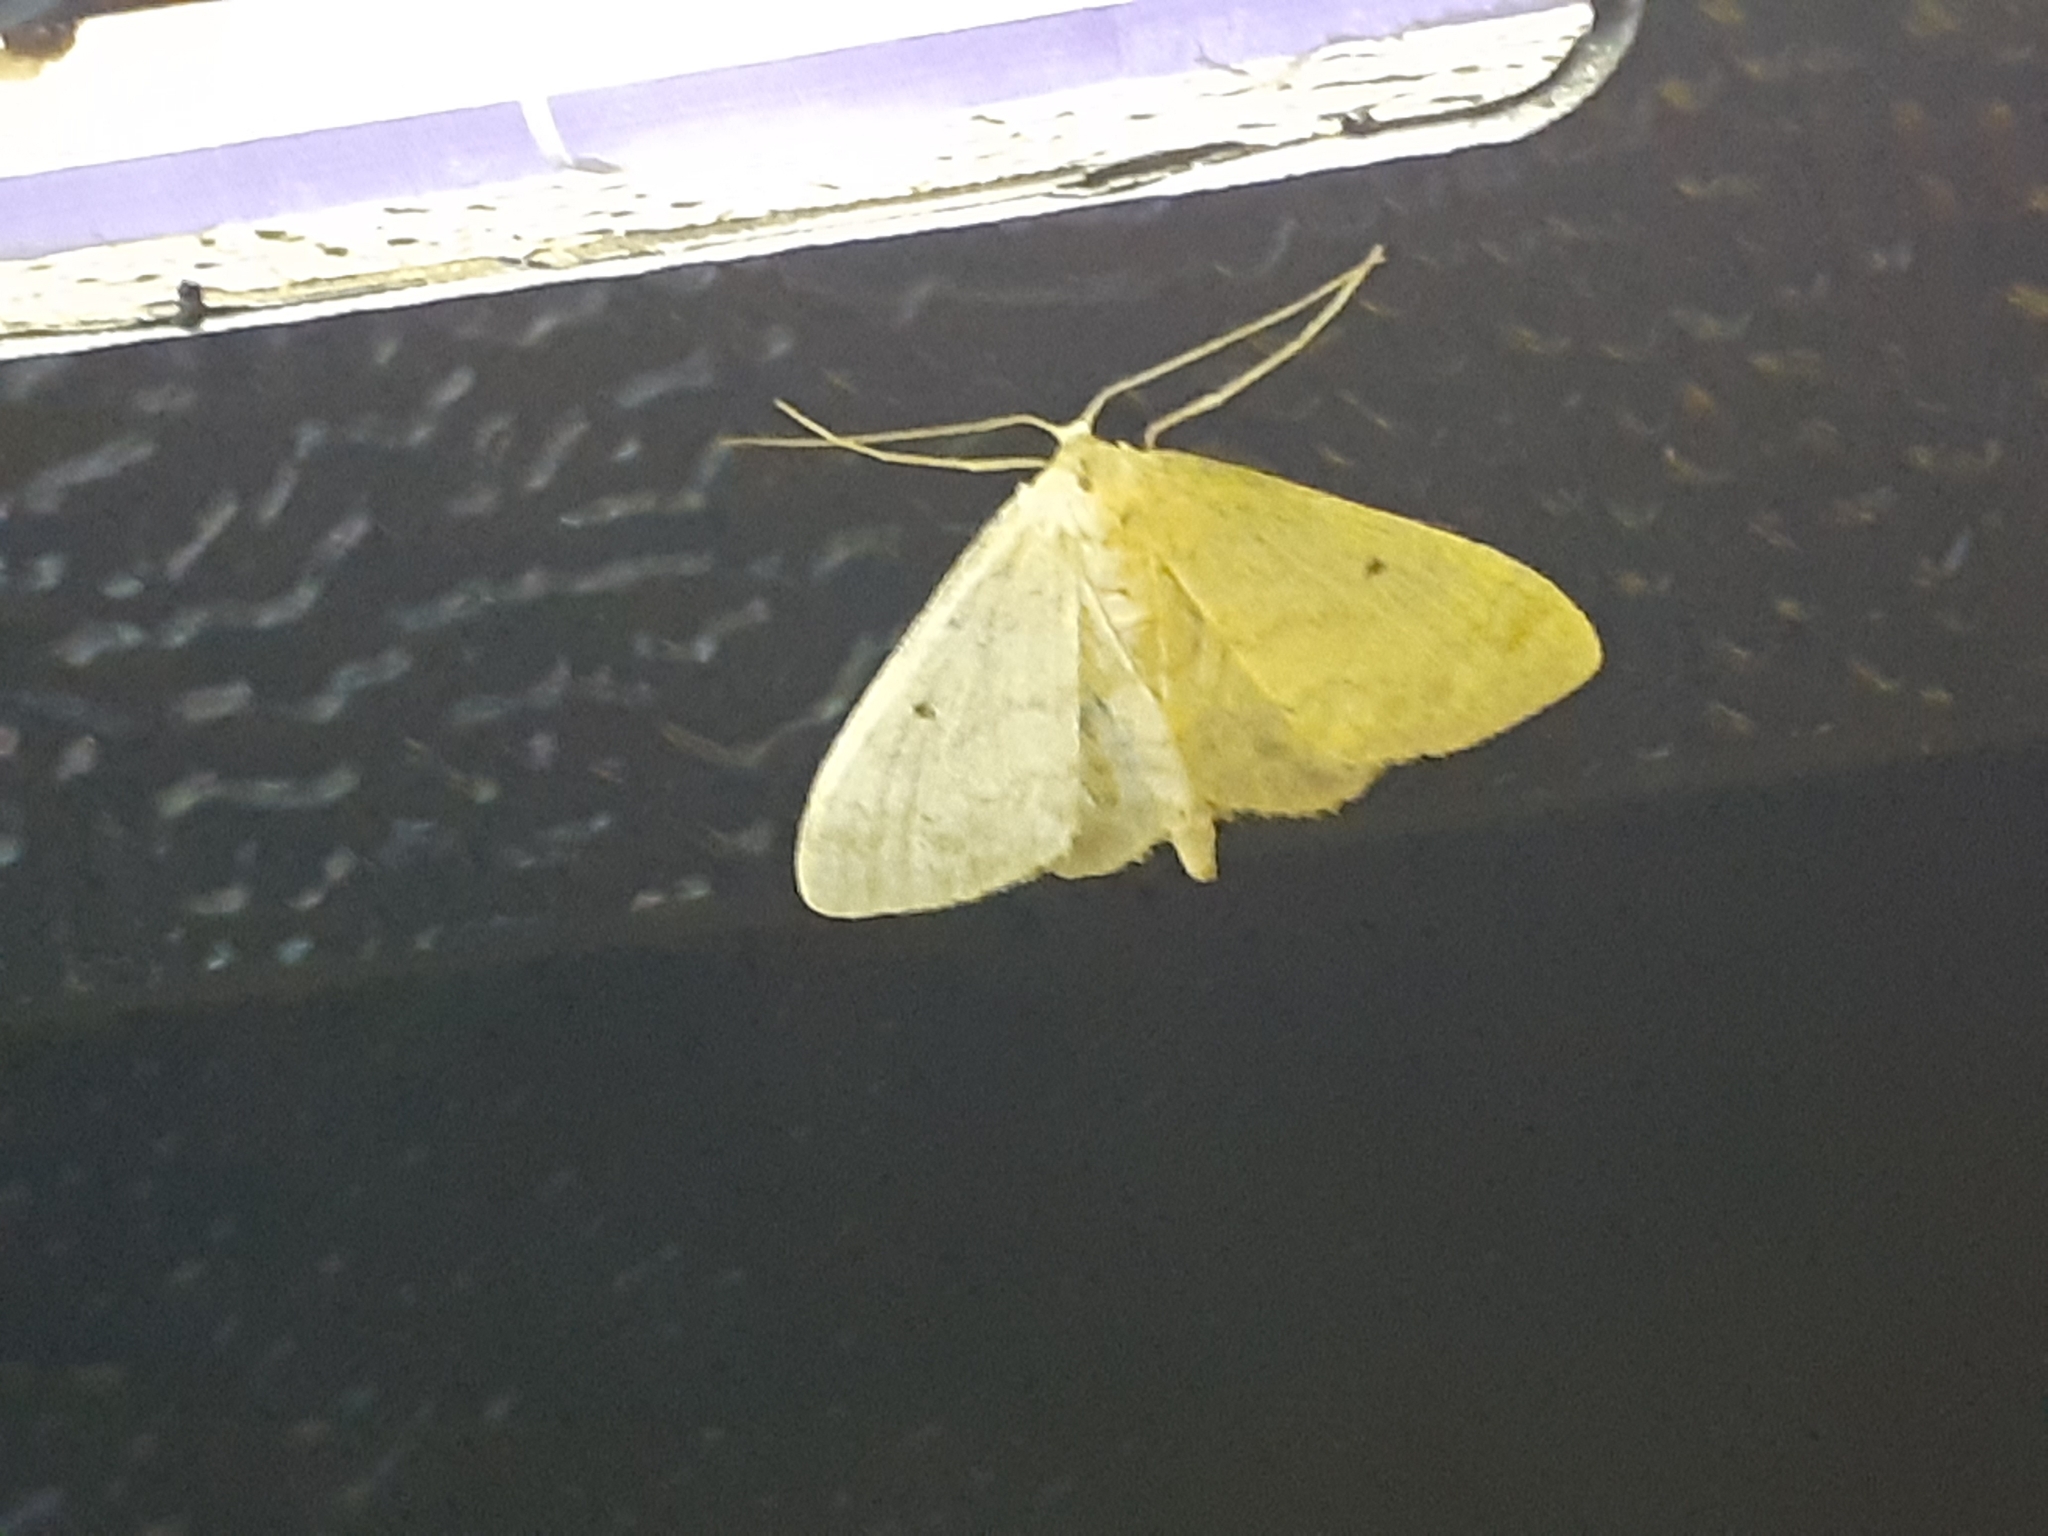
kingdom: Animalia
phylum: Arthropoda
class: Insecta
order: Lepidoptera
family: Geometridae
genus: Idaea
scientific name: Idaea biselata
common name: Small fan-footed wave
